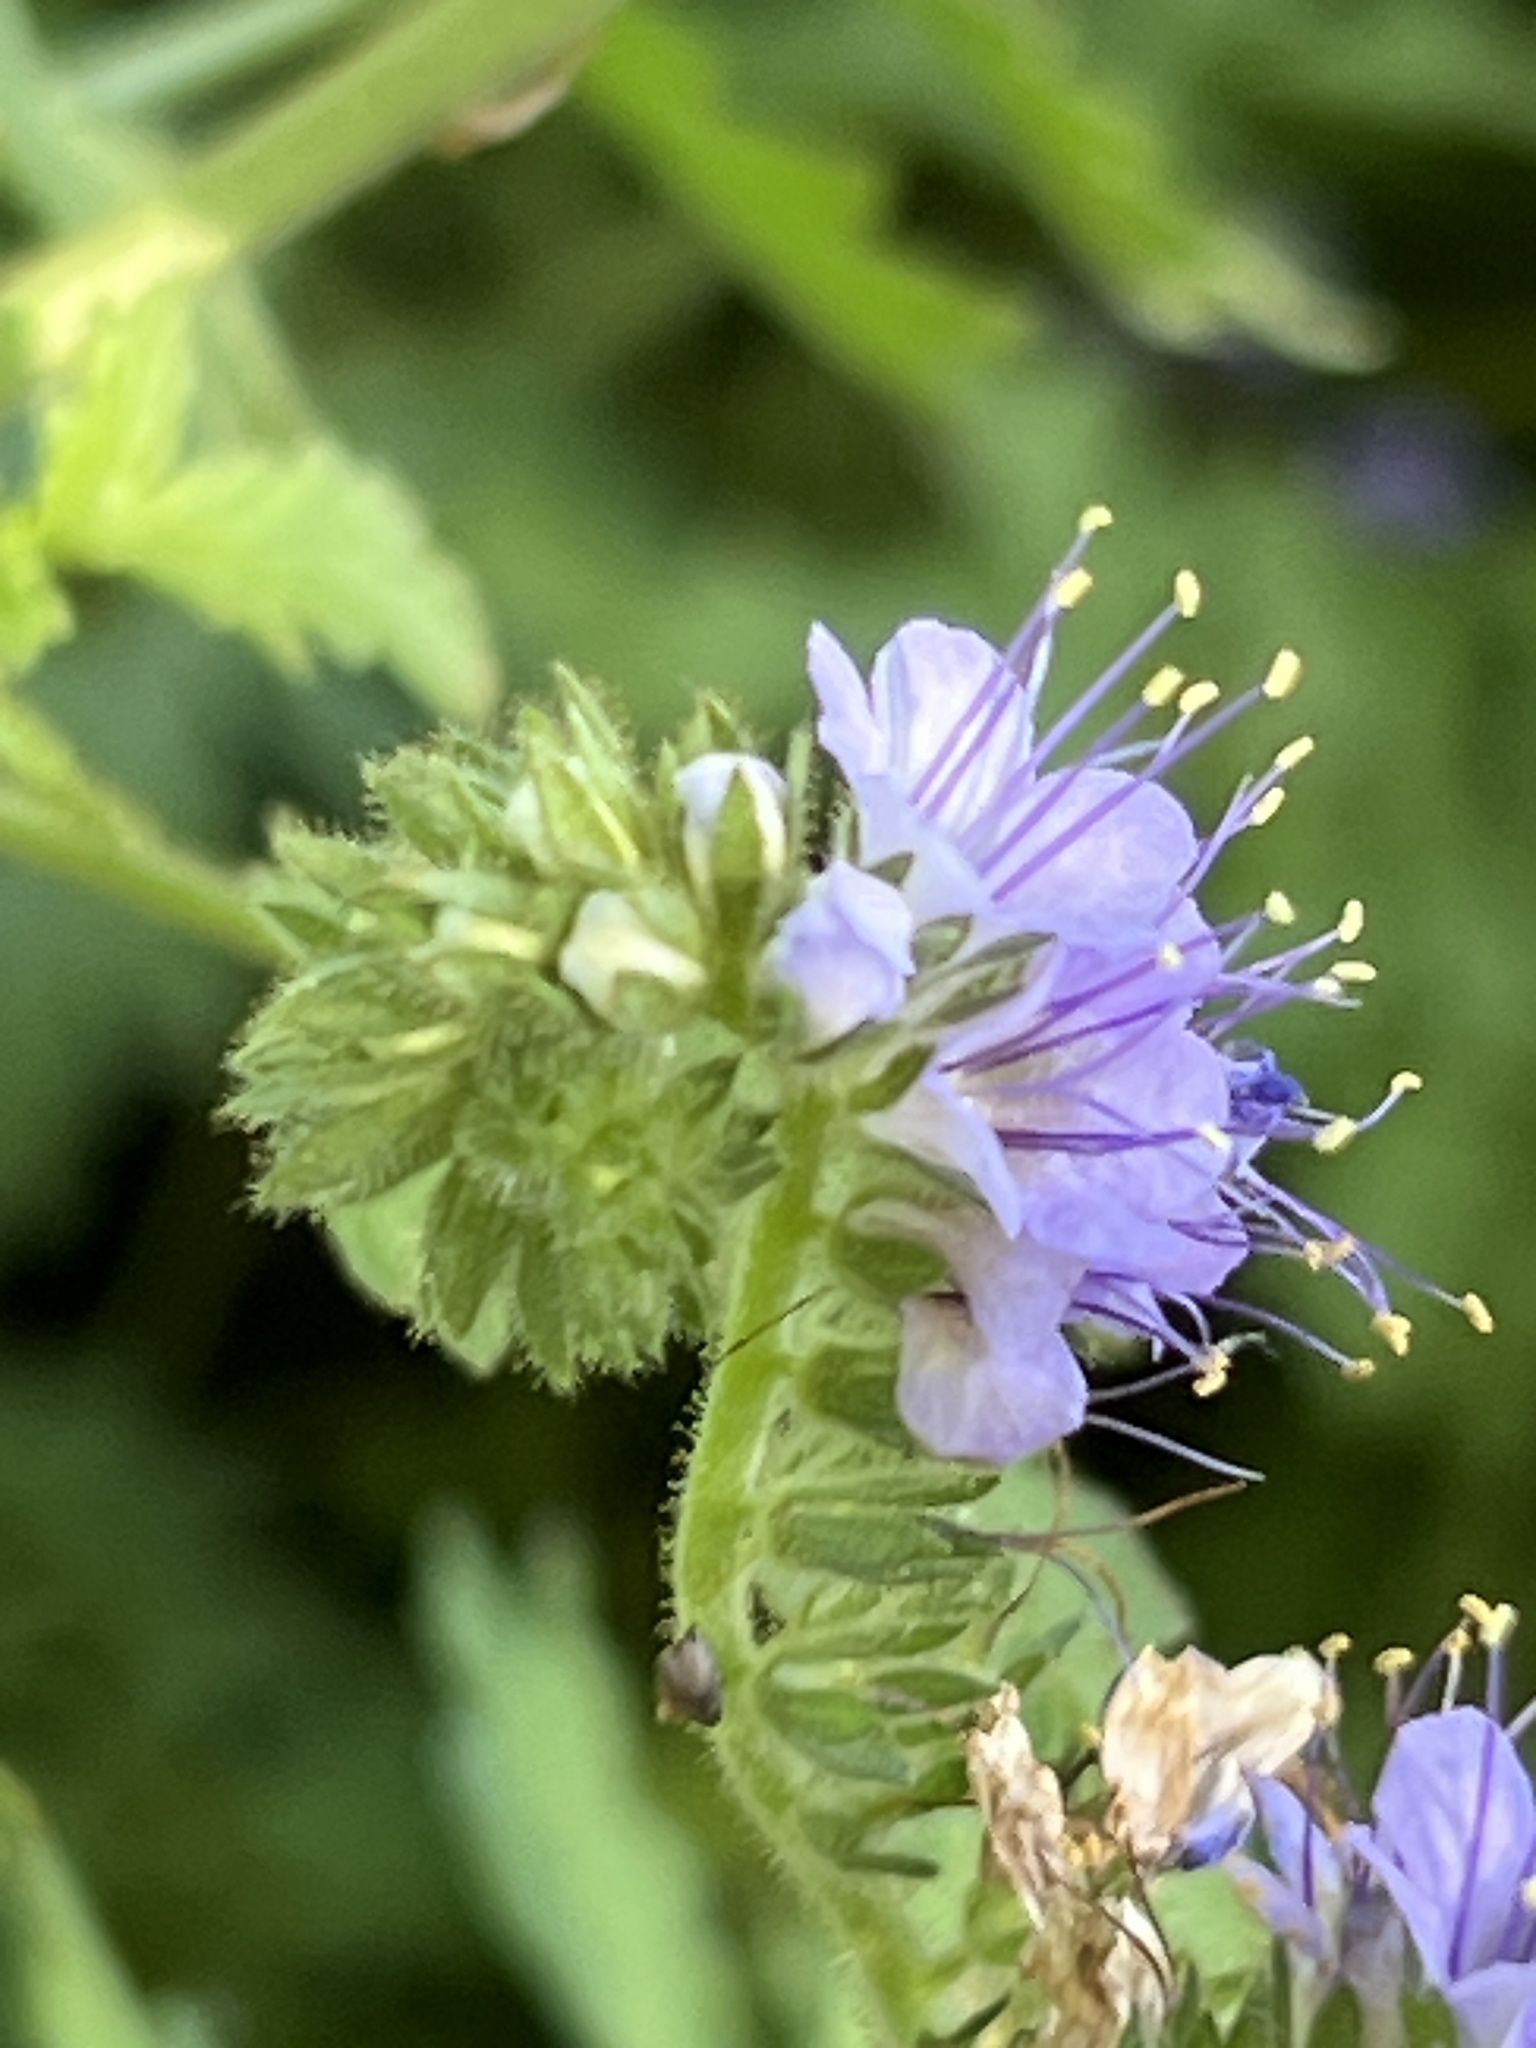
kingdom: Plantae
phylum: Tracheophyta
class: Magnoliopsida
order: Boraginales
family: Hydrophyllaceae
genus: Phacelia
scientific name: Phacelia congesta
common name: Blue curls
